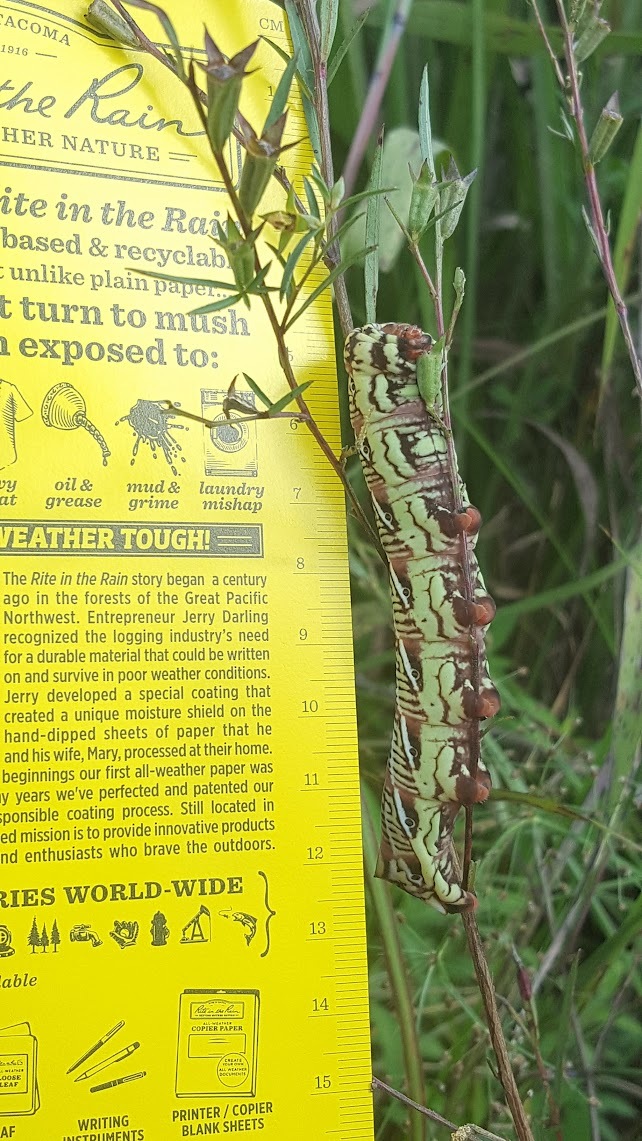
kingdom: Animalia
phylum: Arthropoda
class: Insecta
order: Lepidoptera
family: Sphingidae
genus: Eumorpha
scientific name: Eumorpha fasciatus
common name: Banded sphinx
